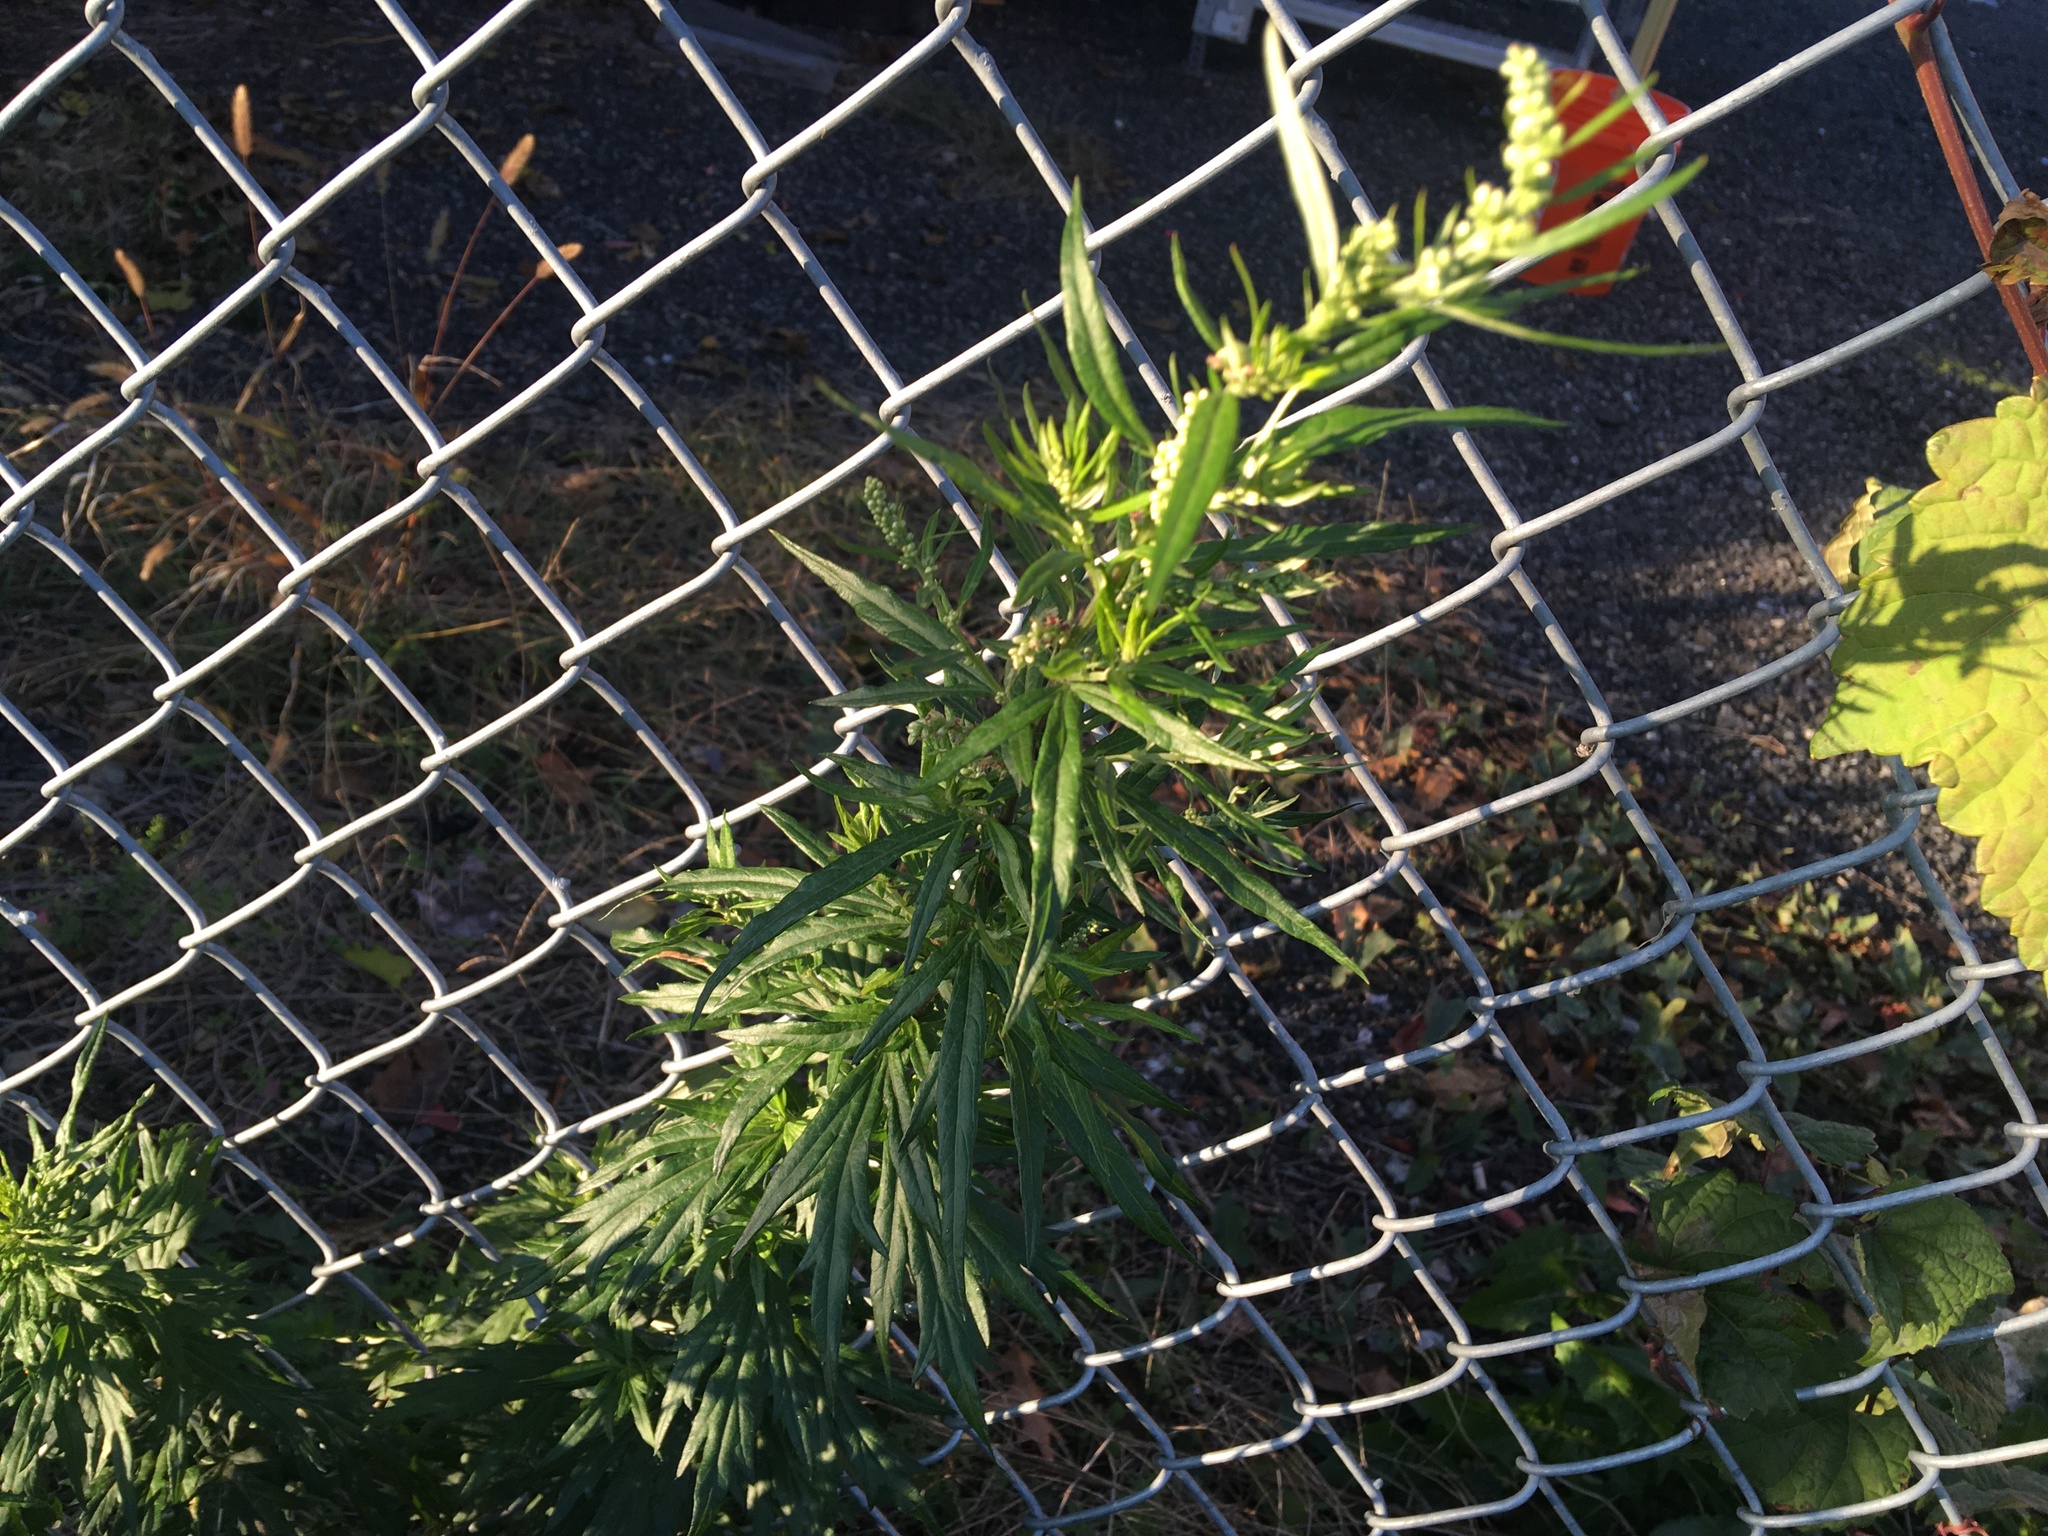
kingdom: Plantae
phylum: Tracheophyta
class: Magnoliopsida
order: Asterales
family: Asteraceae
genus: Artemisia
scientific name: Artemisia vulgaris
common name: Mugwort
